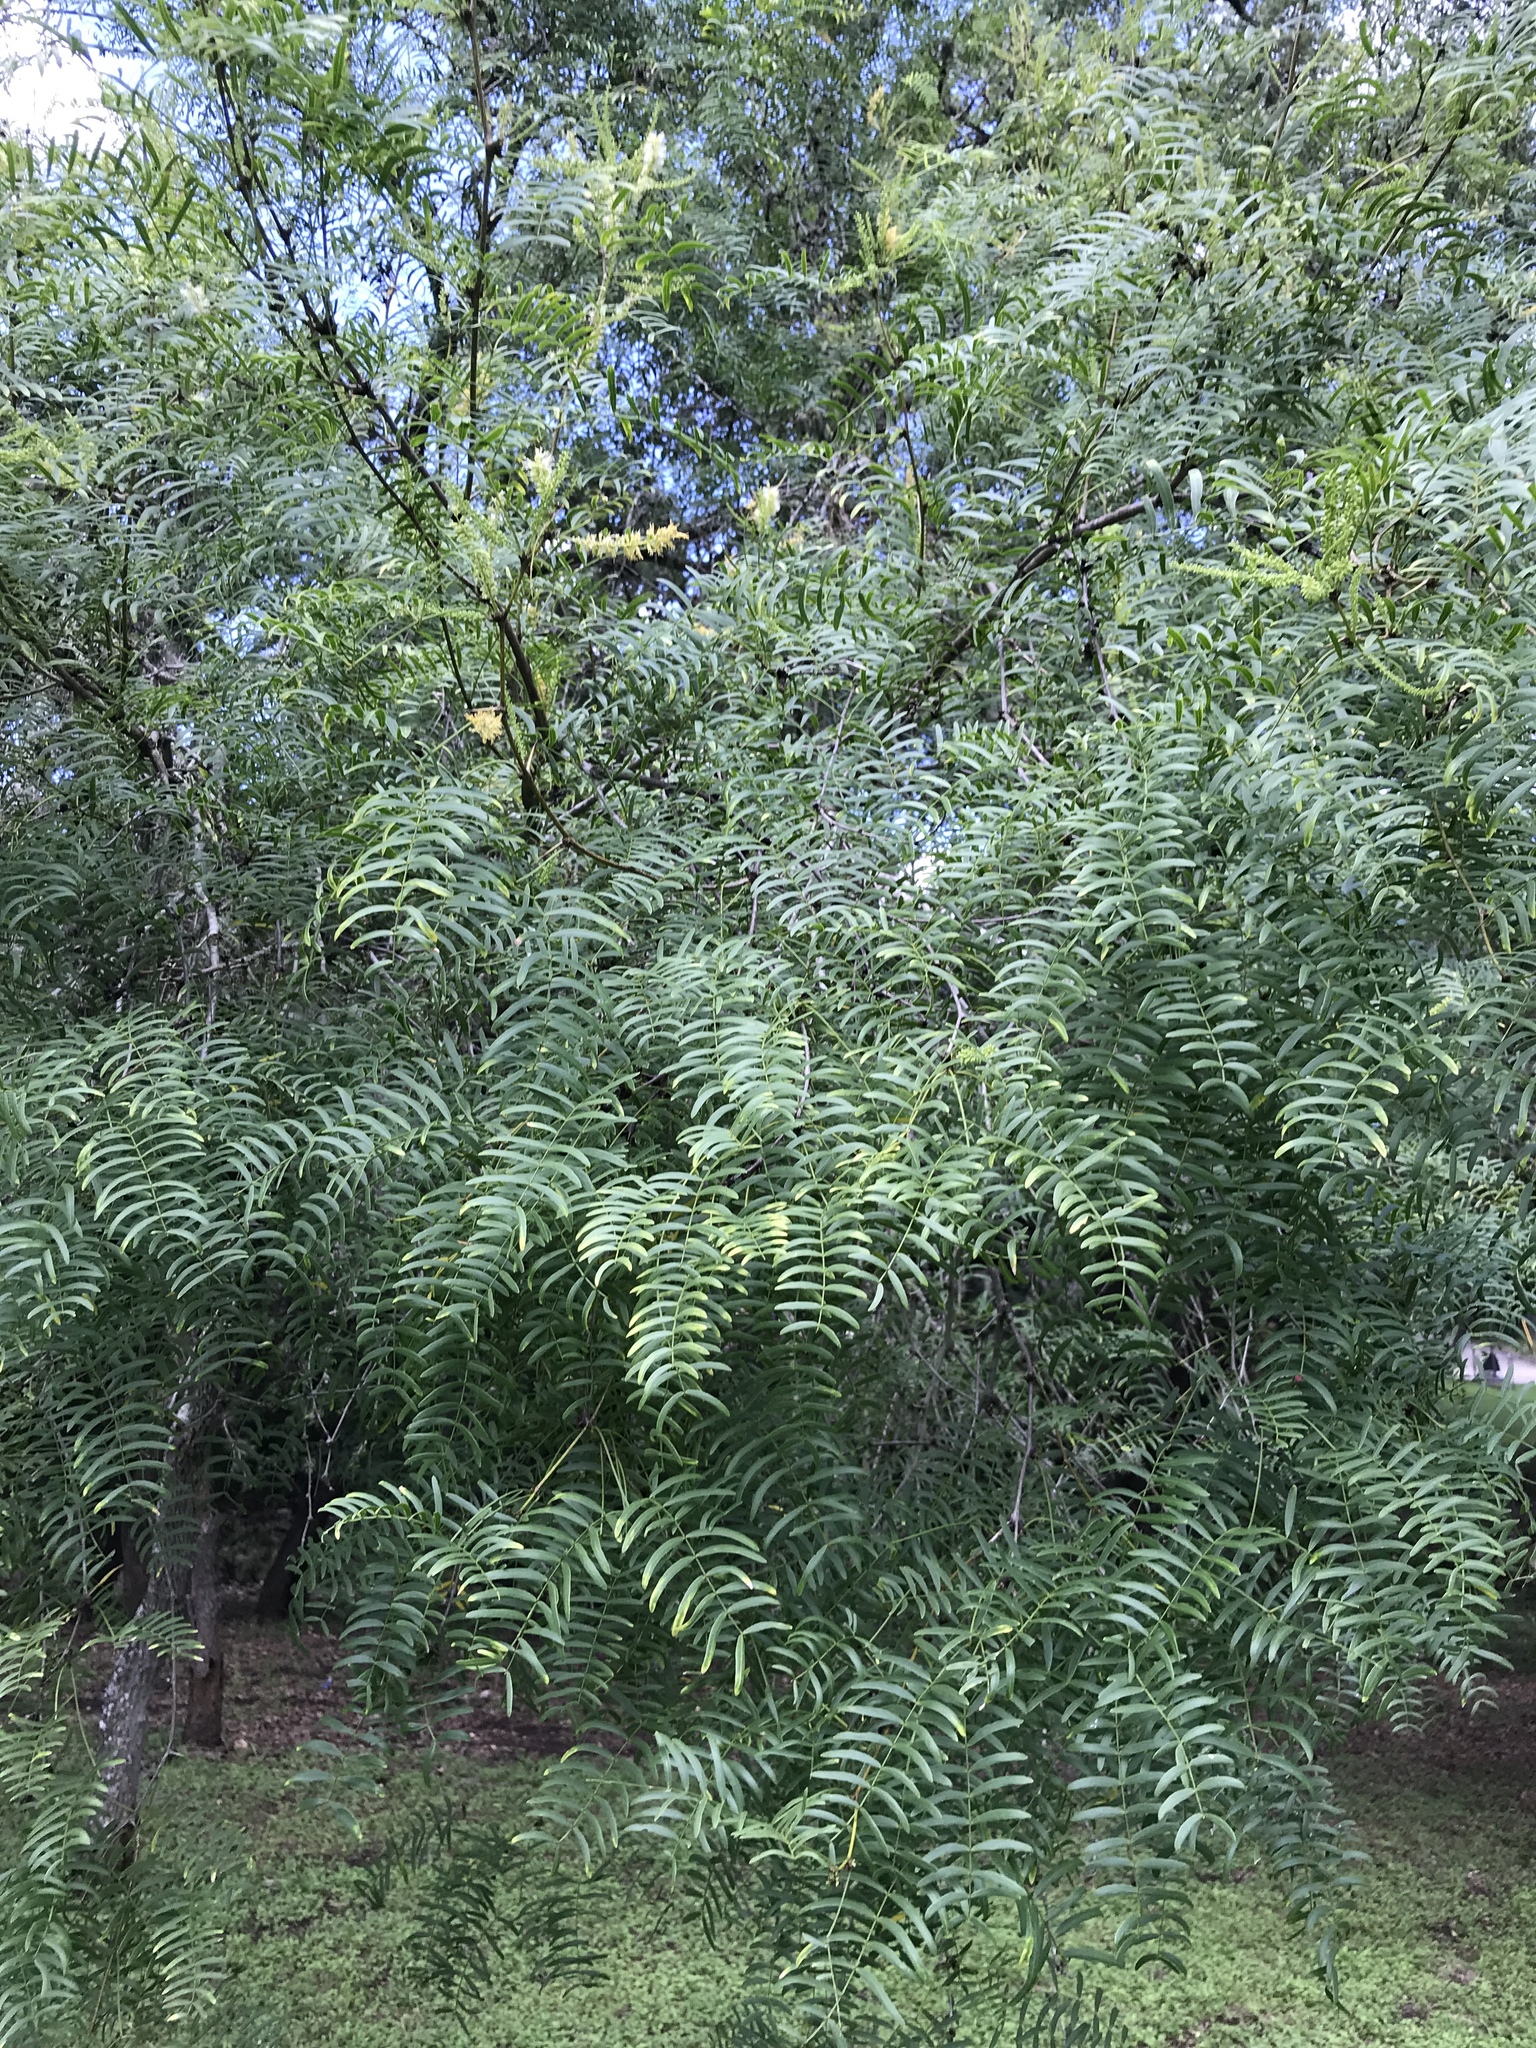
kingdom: Plantae
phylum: Tracheophyta
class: Magnoliopsida
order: Fabales
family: Fabaceae
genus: Prosopis
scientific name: Prosopis glandulosa
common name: Honey mesquite
